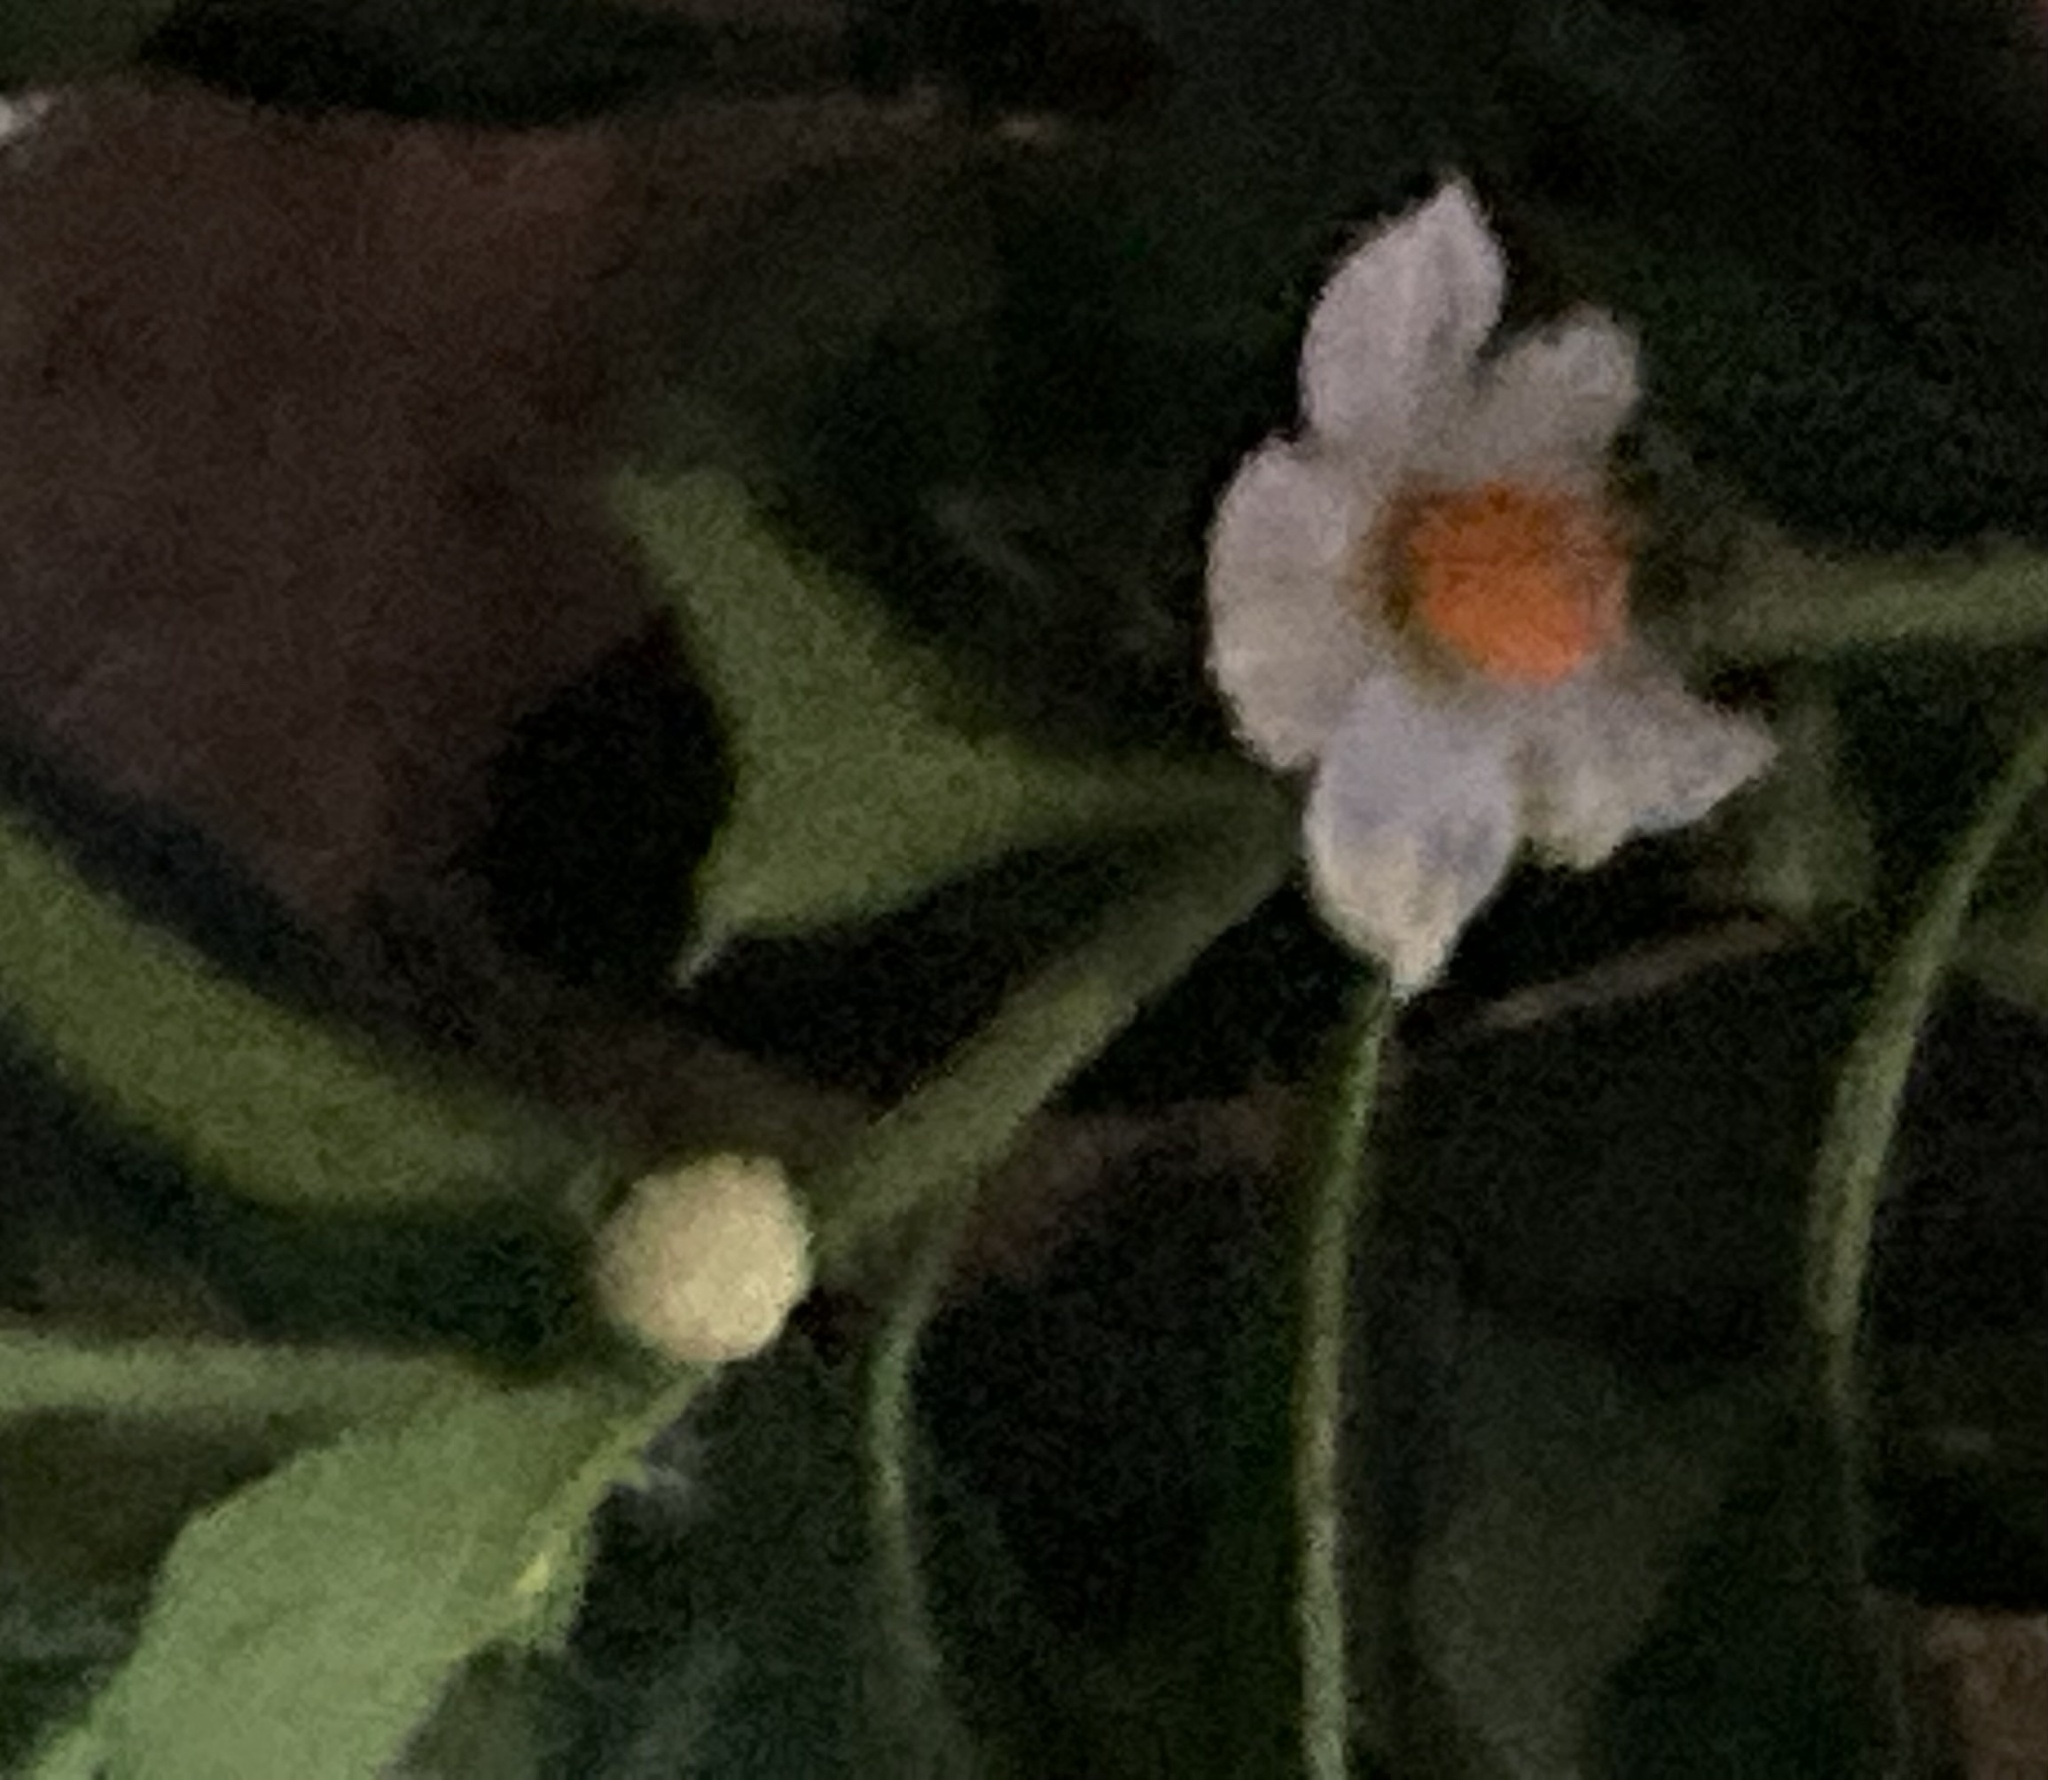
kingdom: Plantae
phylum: Tracheophyta
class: Magnoliopsida
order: Solanales
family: Solanaceae
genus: Solanum
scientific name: Solanum pseudocapsicum
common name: Jerusalem cherry
